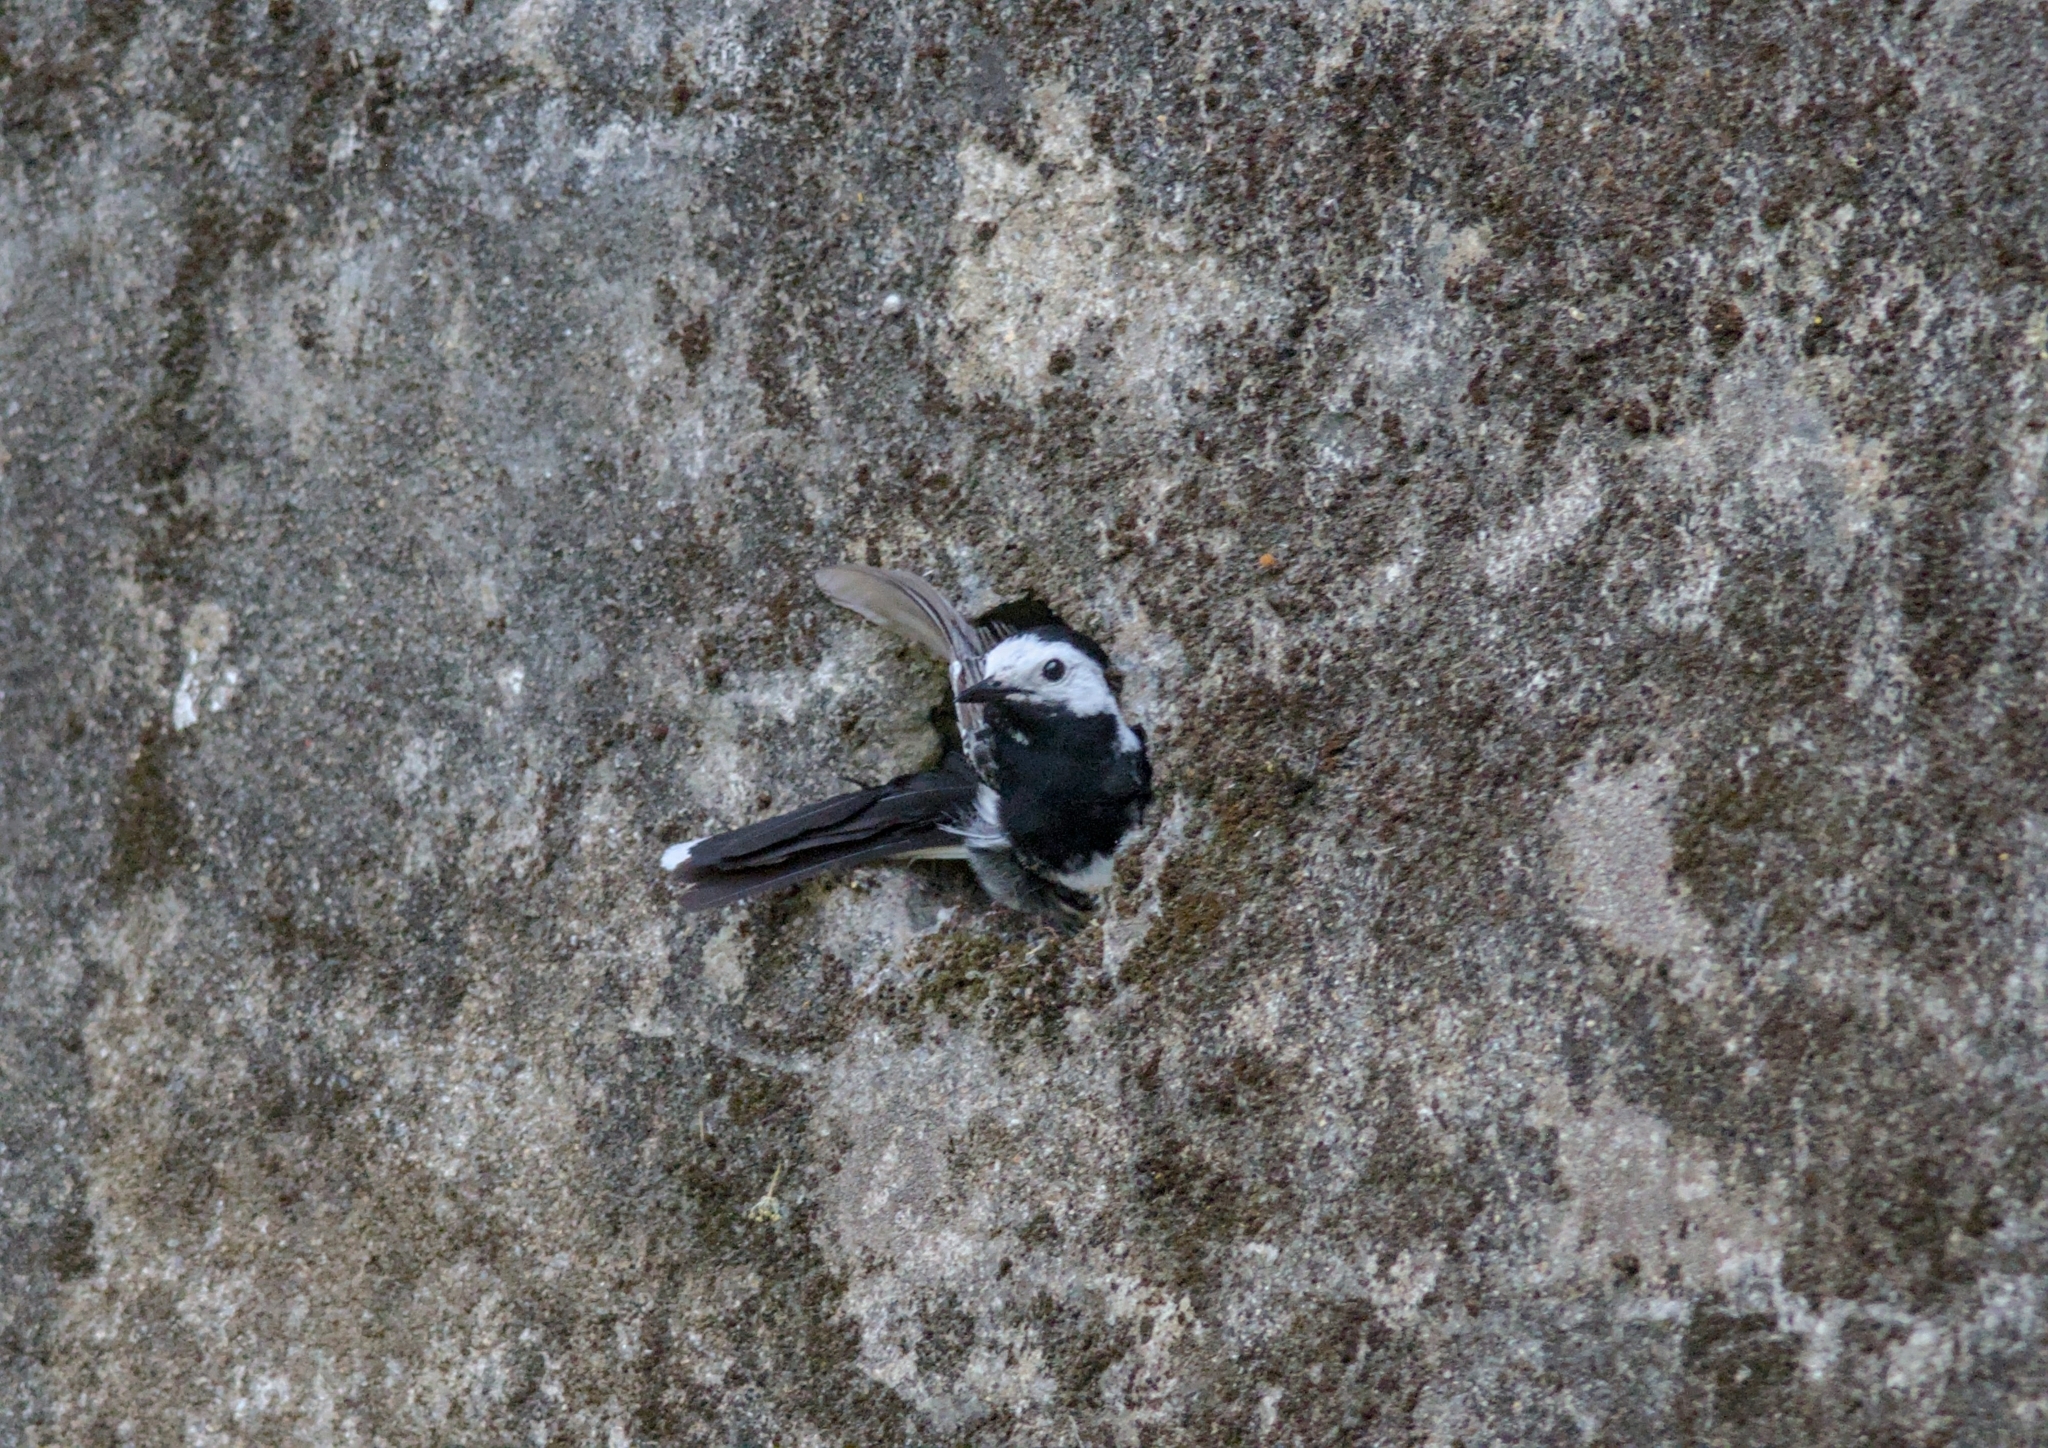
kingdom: Animalia
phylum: Chordata
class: Aves
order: Passeriformes
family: Motacillidae
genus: Motacilla
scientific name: Motacilla alba
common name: White wagtail
